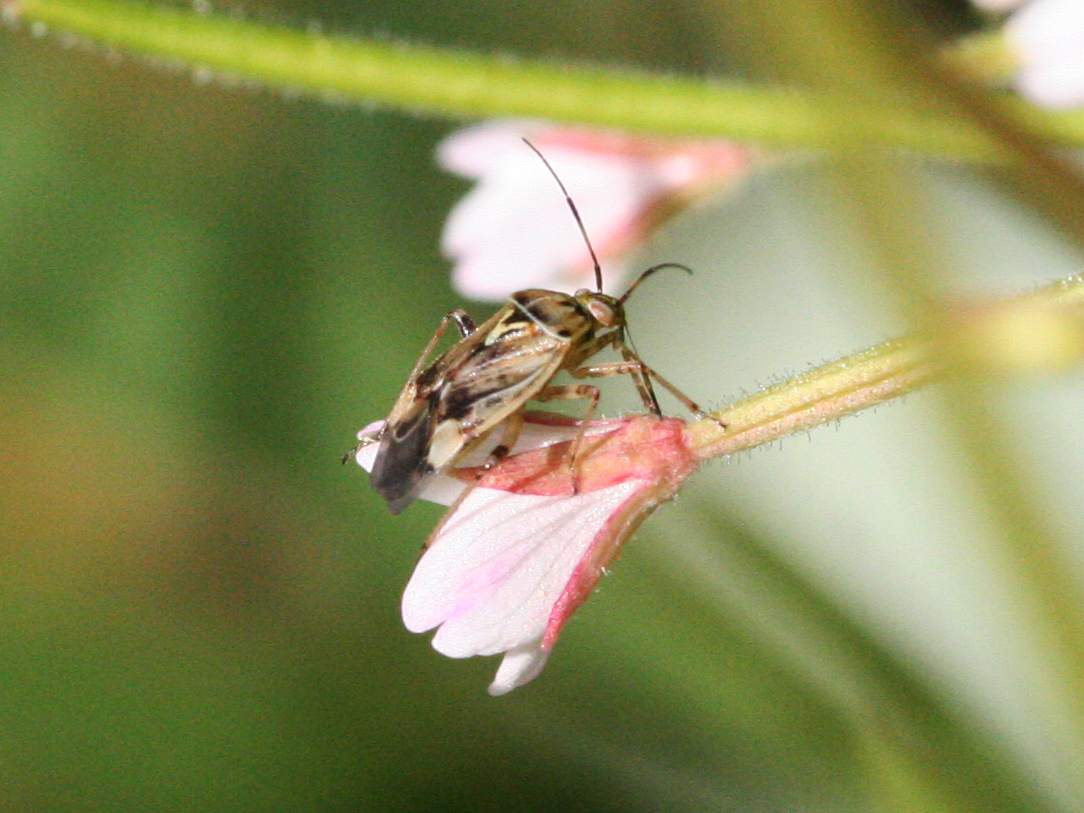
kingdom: Animalia
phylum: Arthropoda
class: Insecta
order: Hemiptera
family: Miridae
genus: Lygus
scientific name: Lygus
